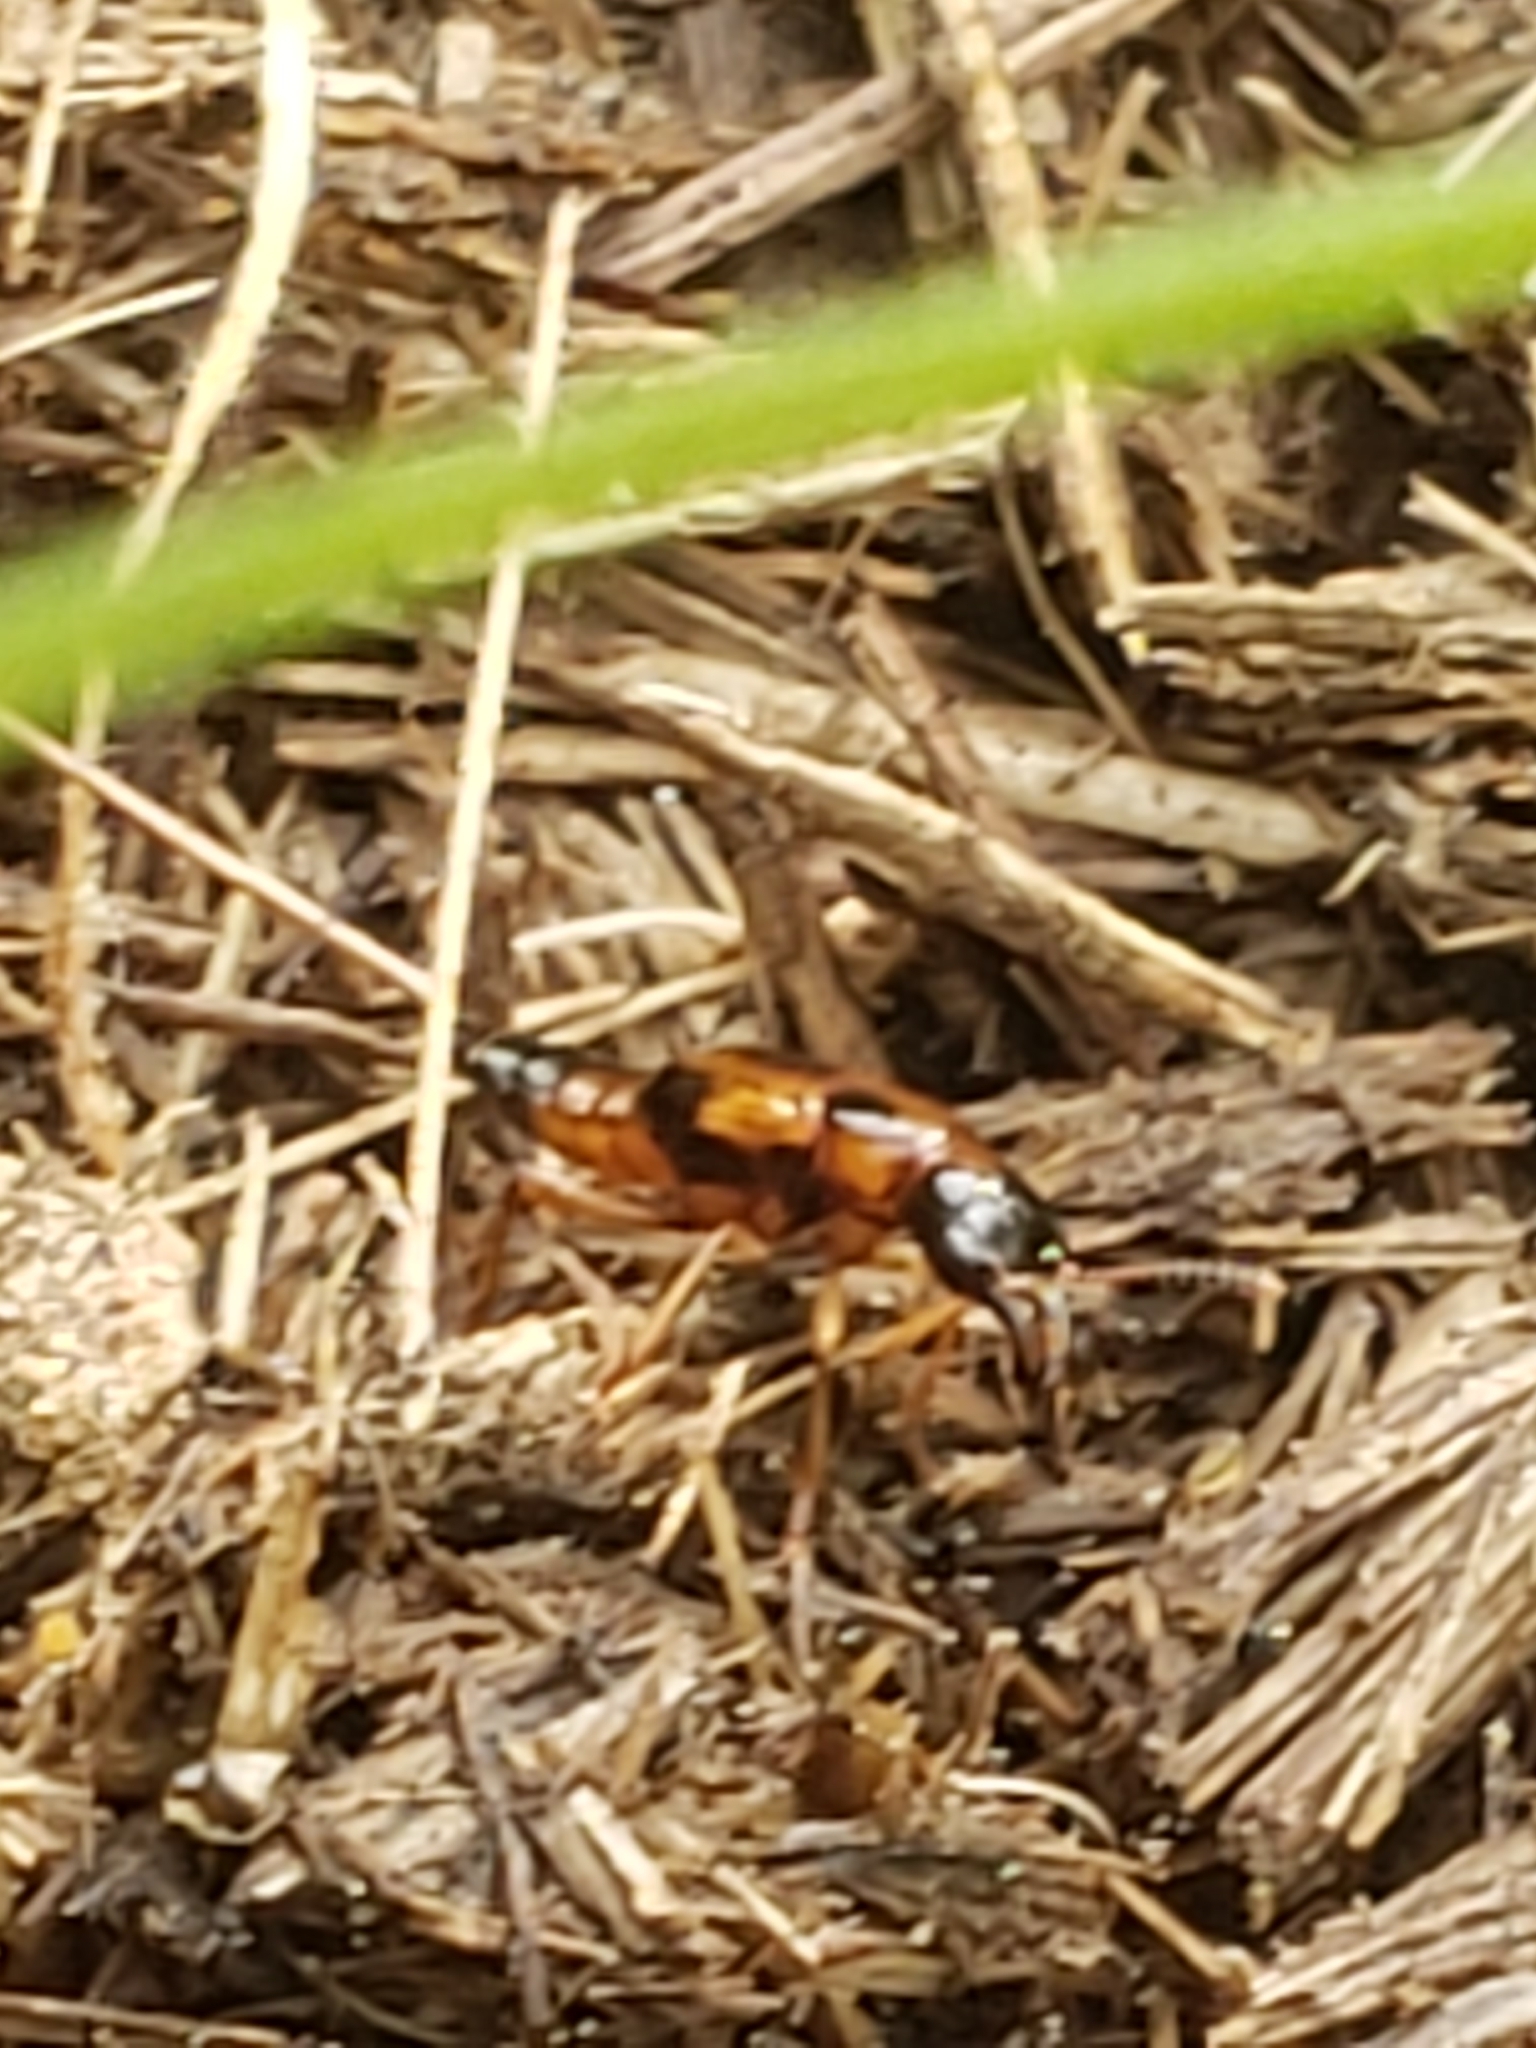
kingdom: Animalia
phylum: Arthropoda
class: Insecta
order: Coleoptera
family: Staphylinidae
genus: Pseudoxyporus
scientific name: Pseudoxyporus quinquemaculatus
